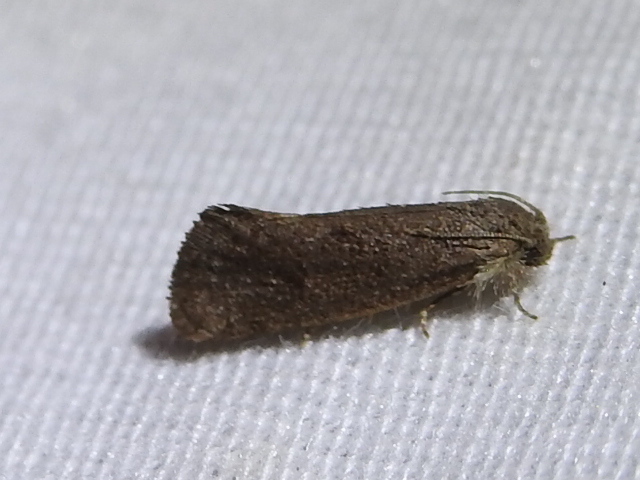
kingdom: Animalia
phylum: Arthropoda
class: Insecta
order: Lepidoptera
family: Tineidae
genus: Acrolophus
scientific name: Acrolophus heppneri
